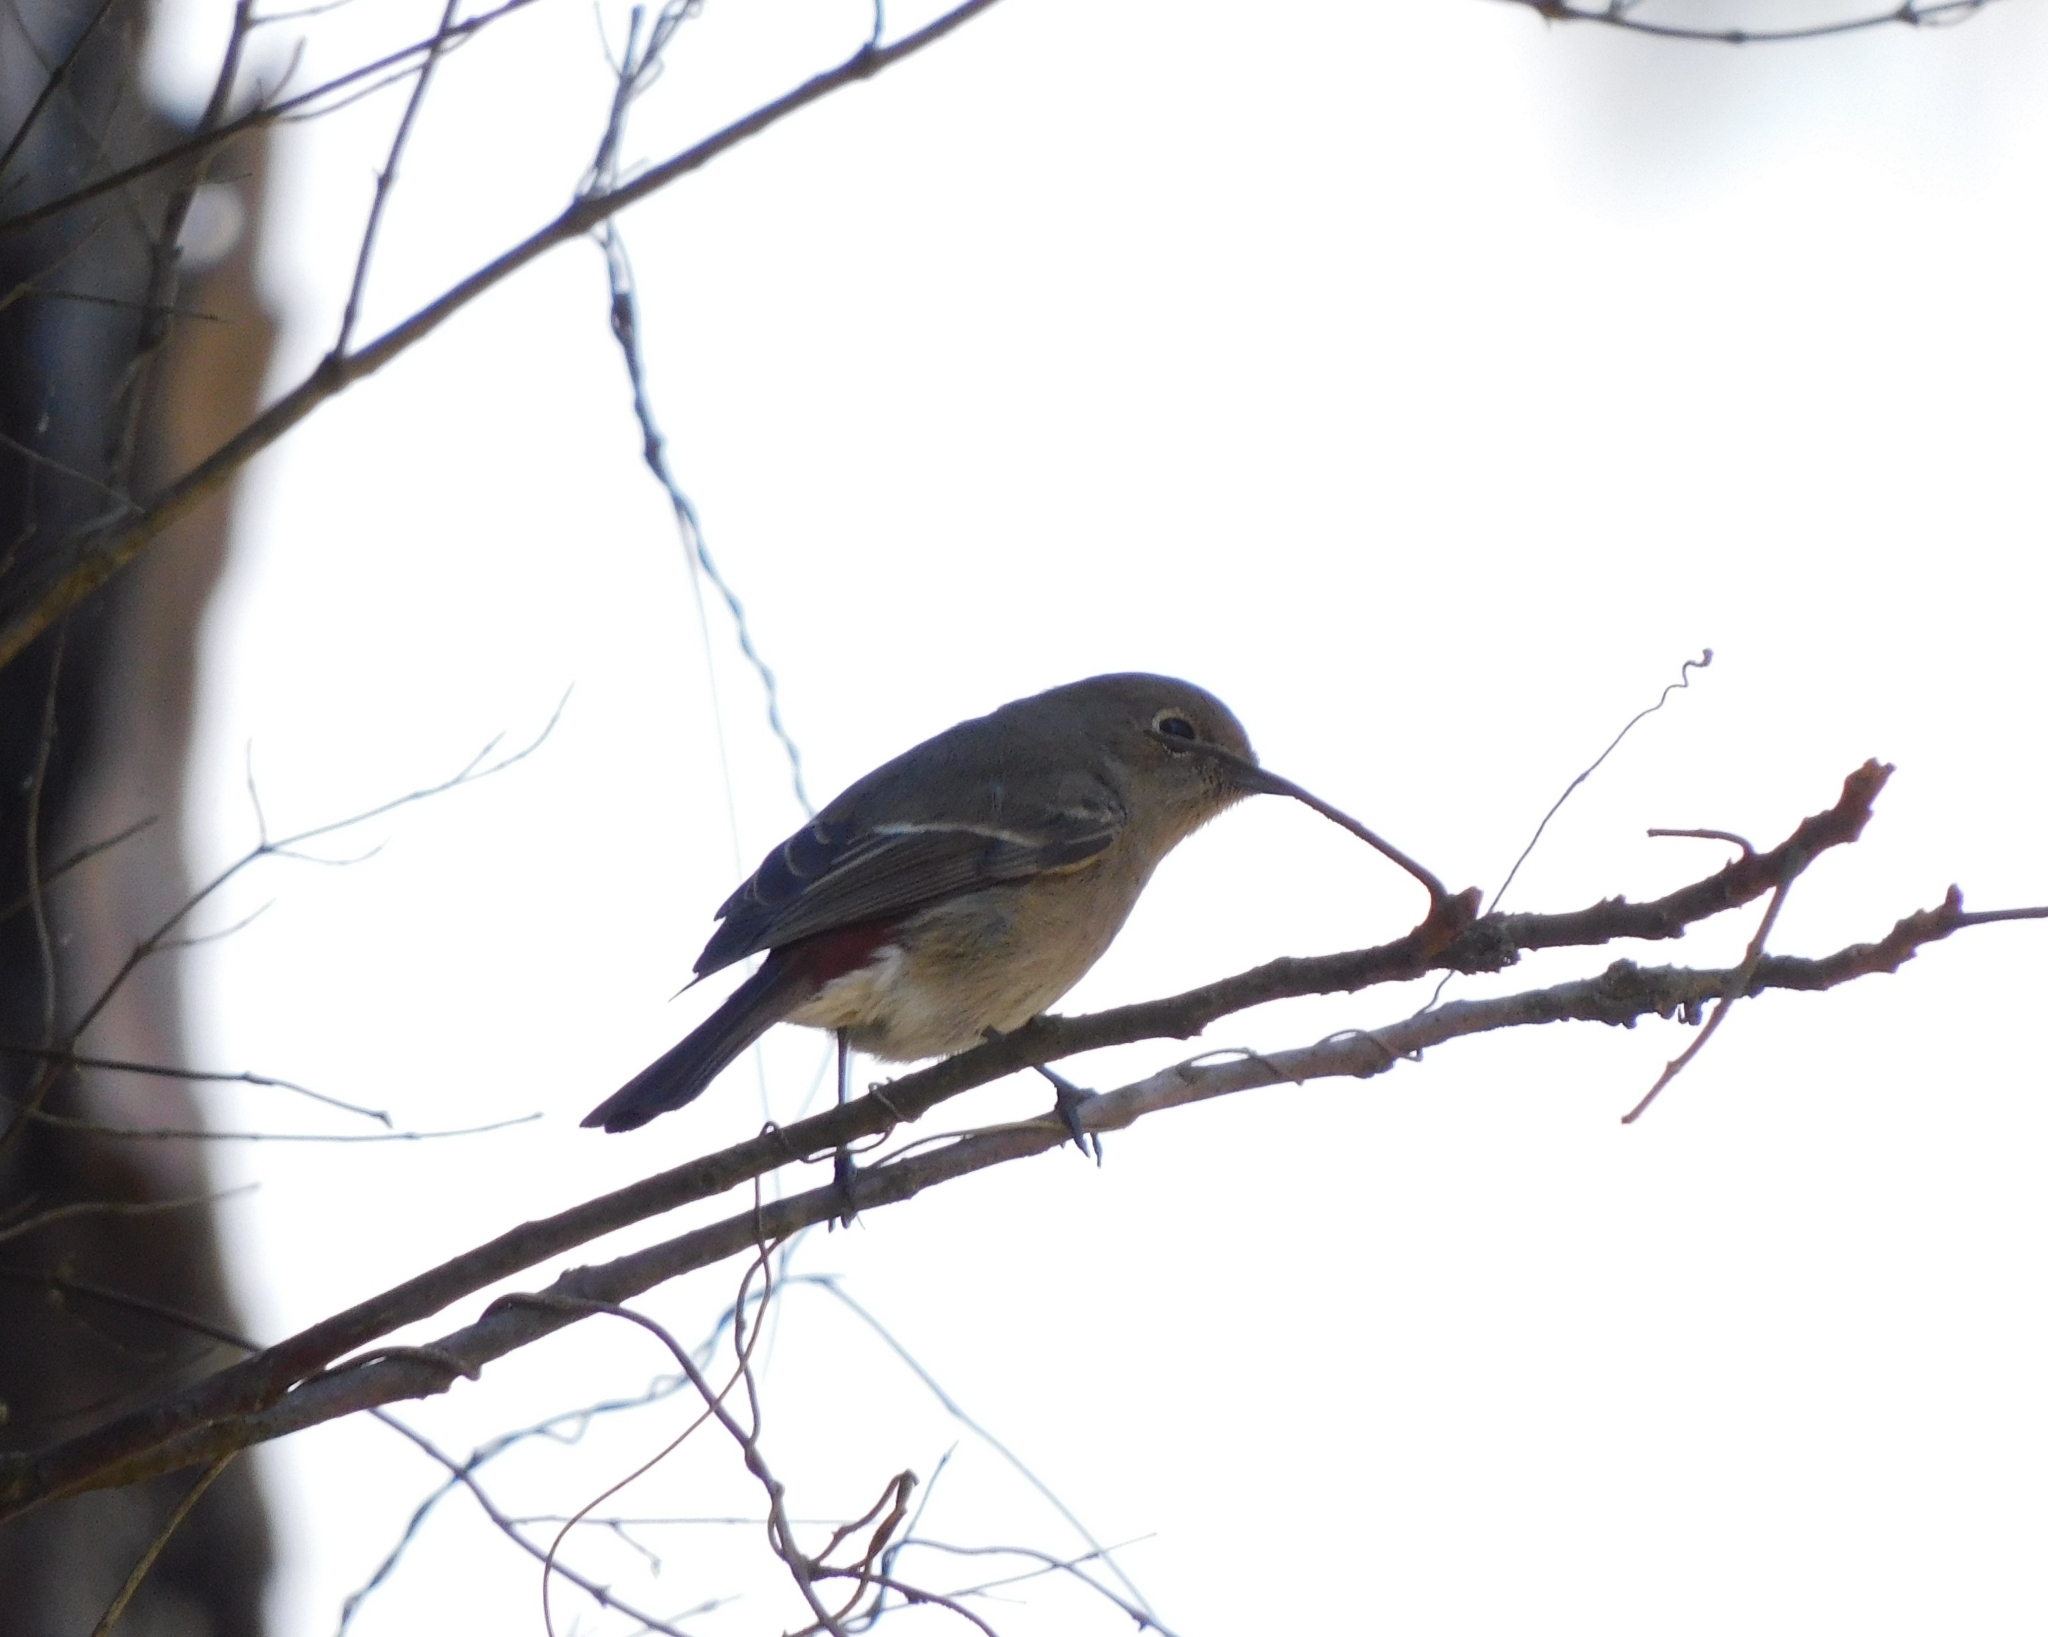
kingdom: Animalia
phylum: Chordata
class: Aves
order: Passeriformes
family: Muscicapidae
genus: Phoenicurus
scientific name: Phoenicurus frontalis
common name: Blue-fronted redstart
